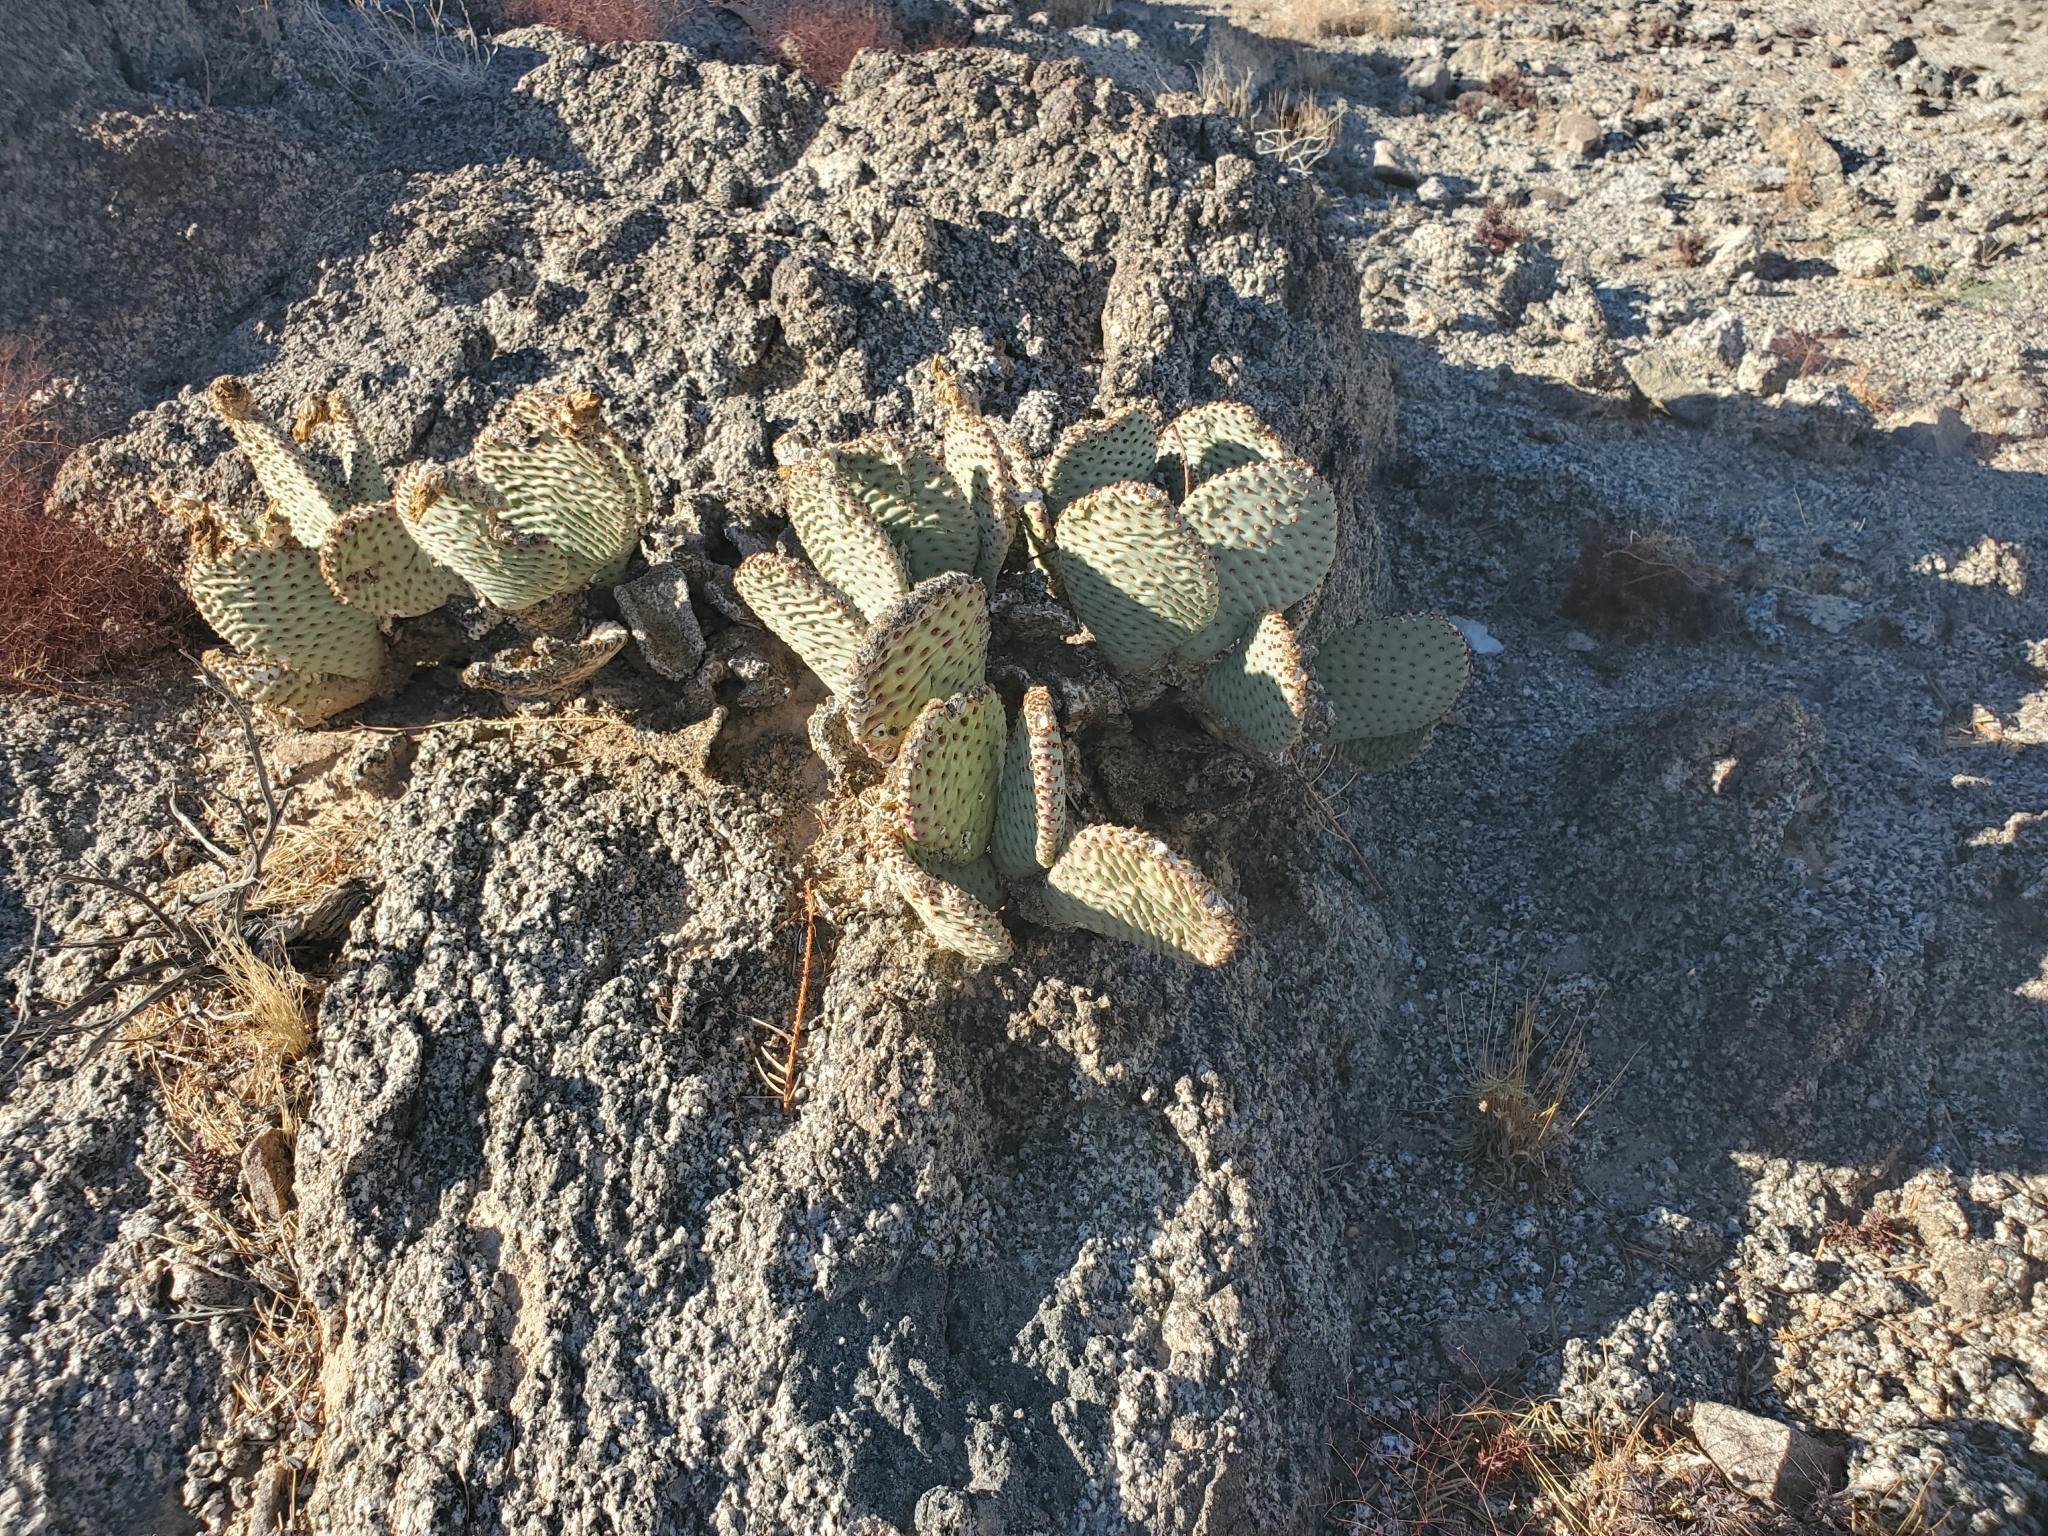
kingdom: Plantae
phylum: Tracheophyta
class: Magnoliopsida
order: Caryophyllales
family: Cactaceae
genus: Opuntia
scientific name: Opuntia basilaris
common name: Beavertail prickly-pear
